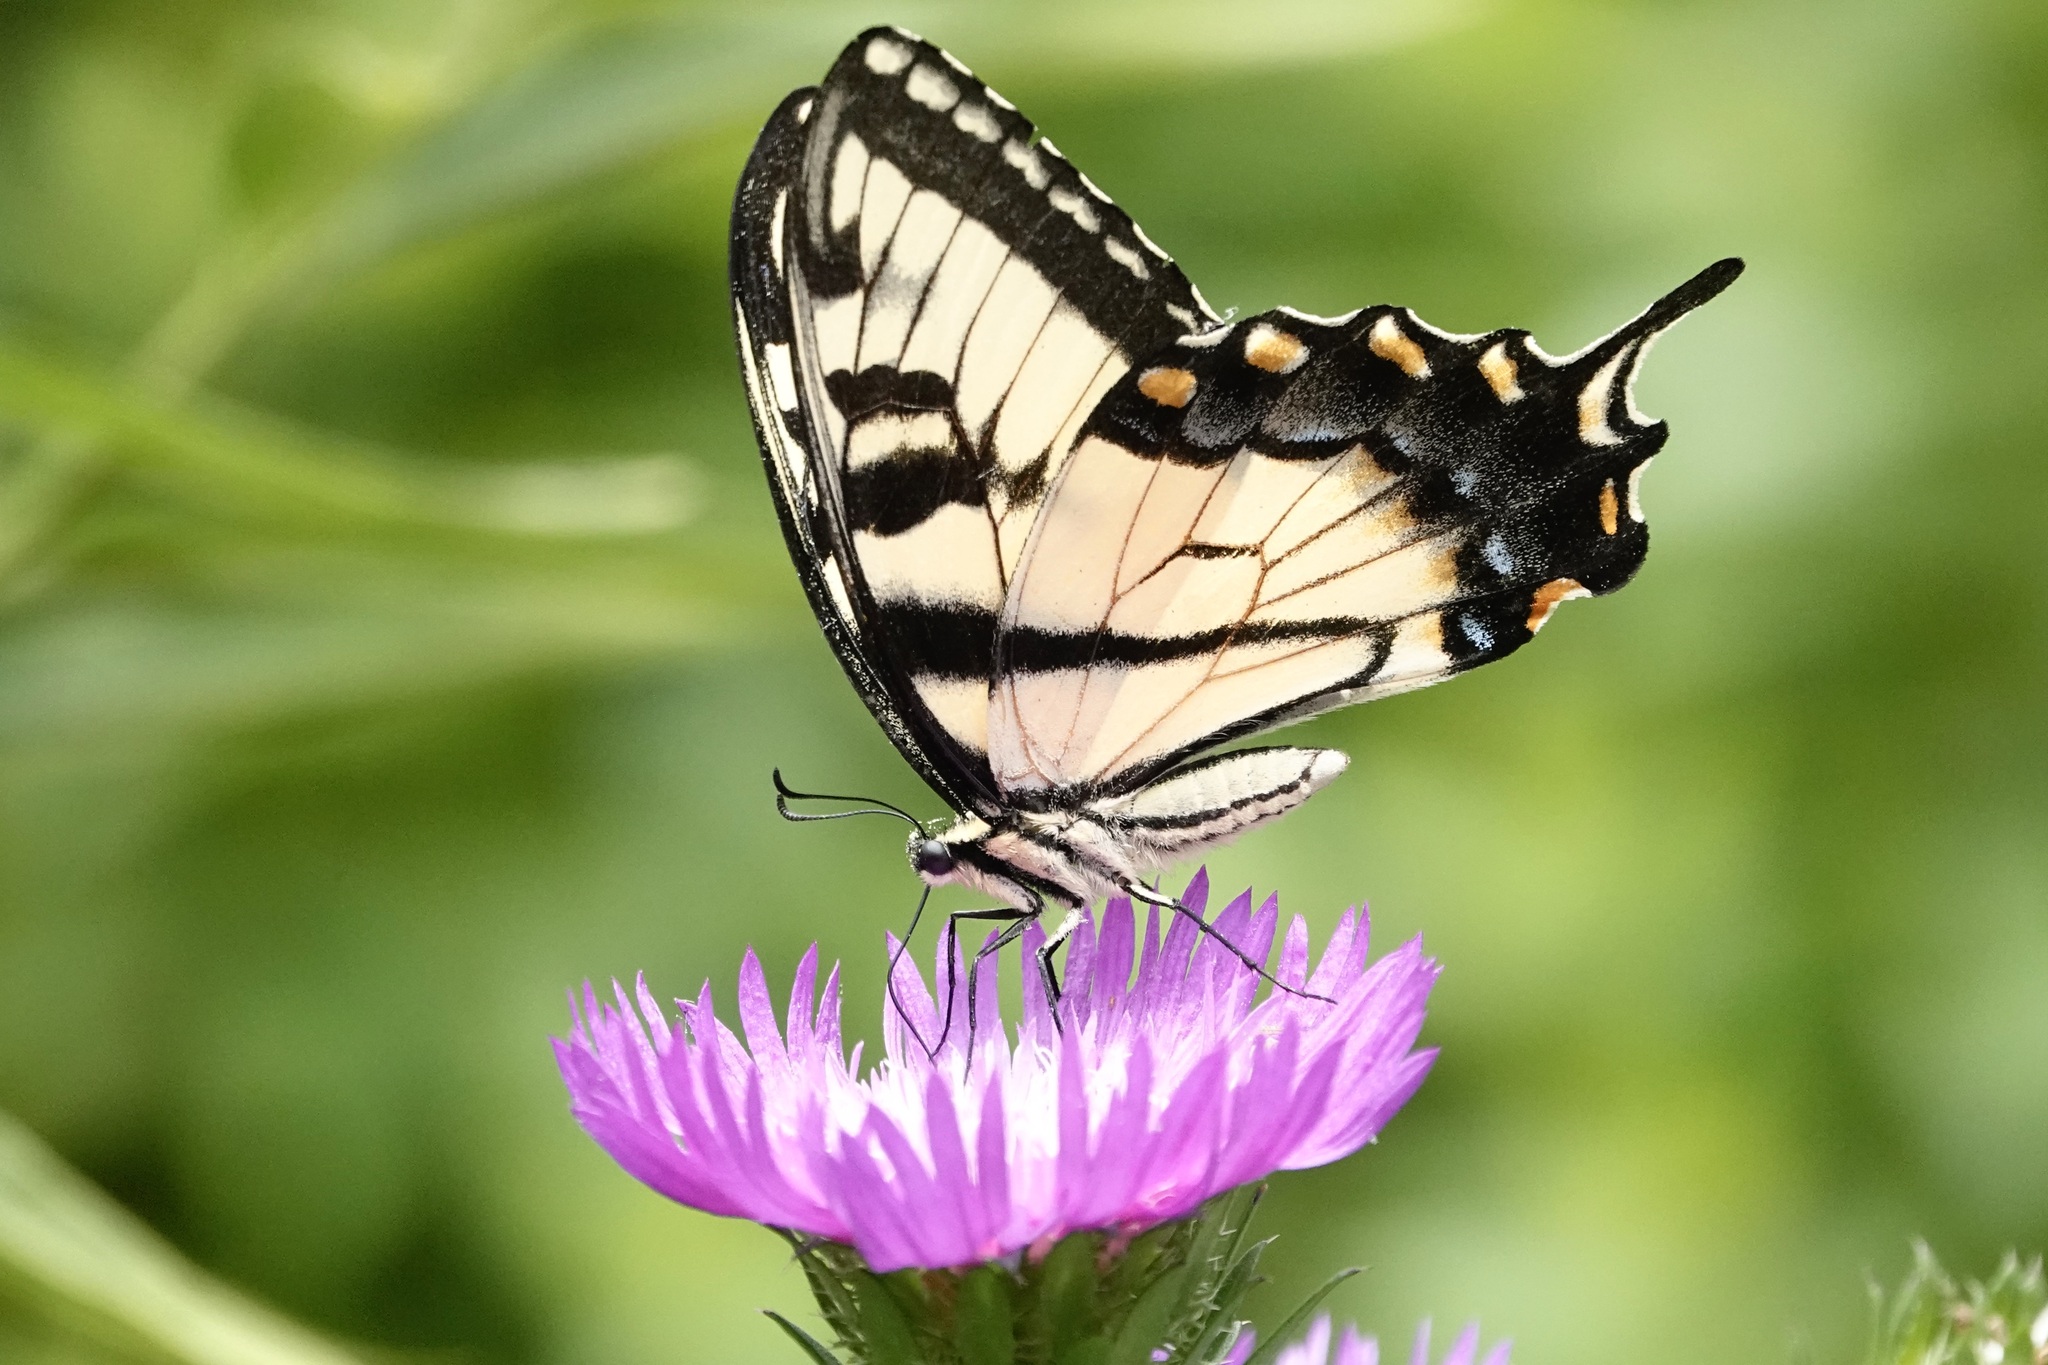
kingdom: Animalia
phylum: Arthropoda
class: Insecta
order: Lepidoptera
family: Papilionidae
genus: Papilio
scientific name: Papilio glaucus
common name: Tiger swallowtail
